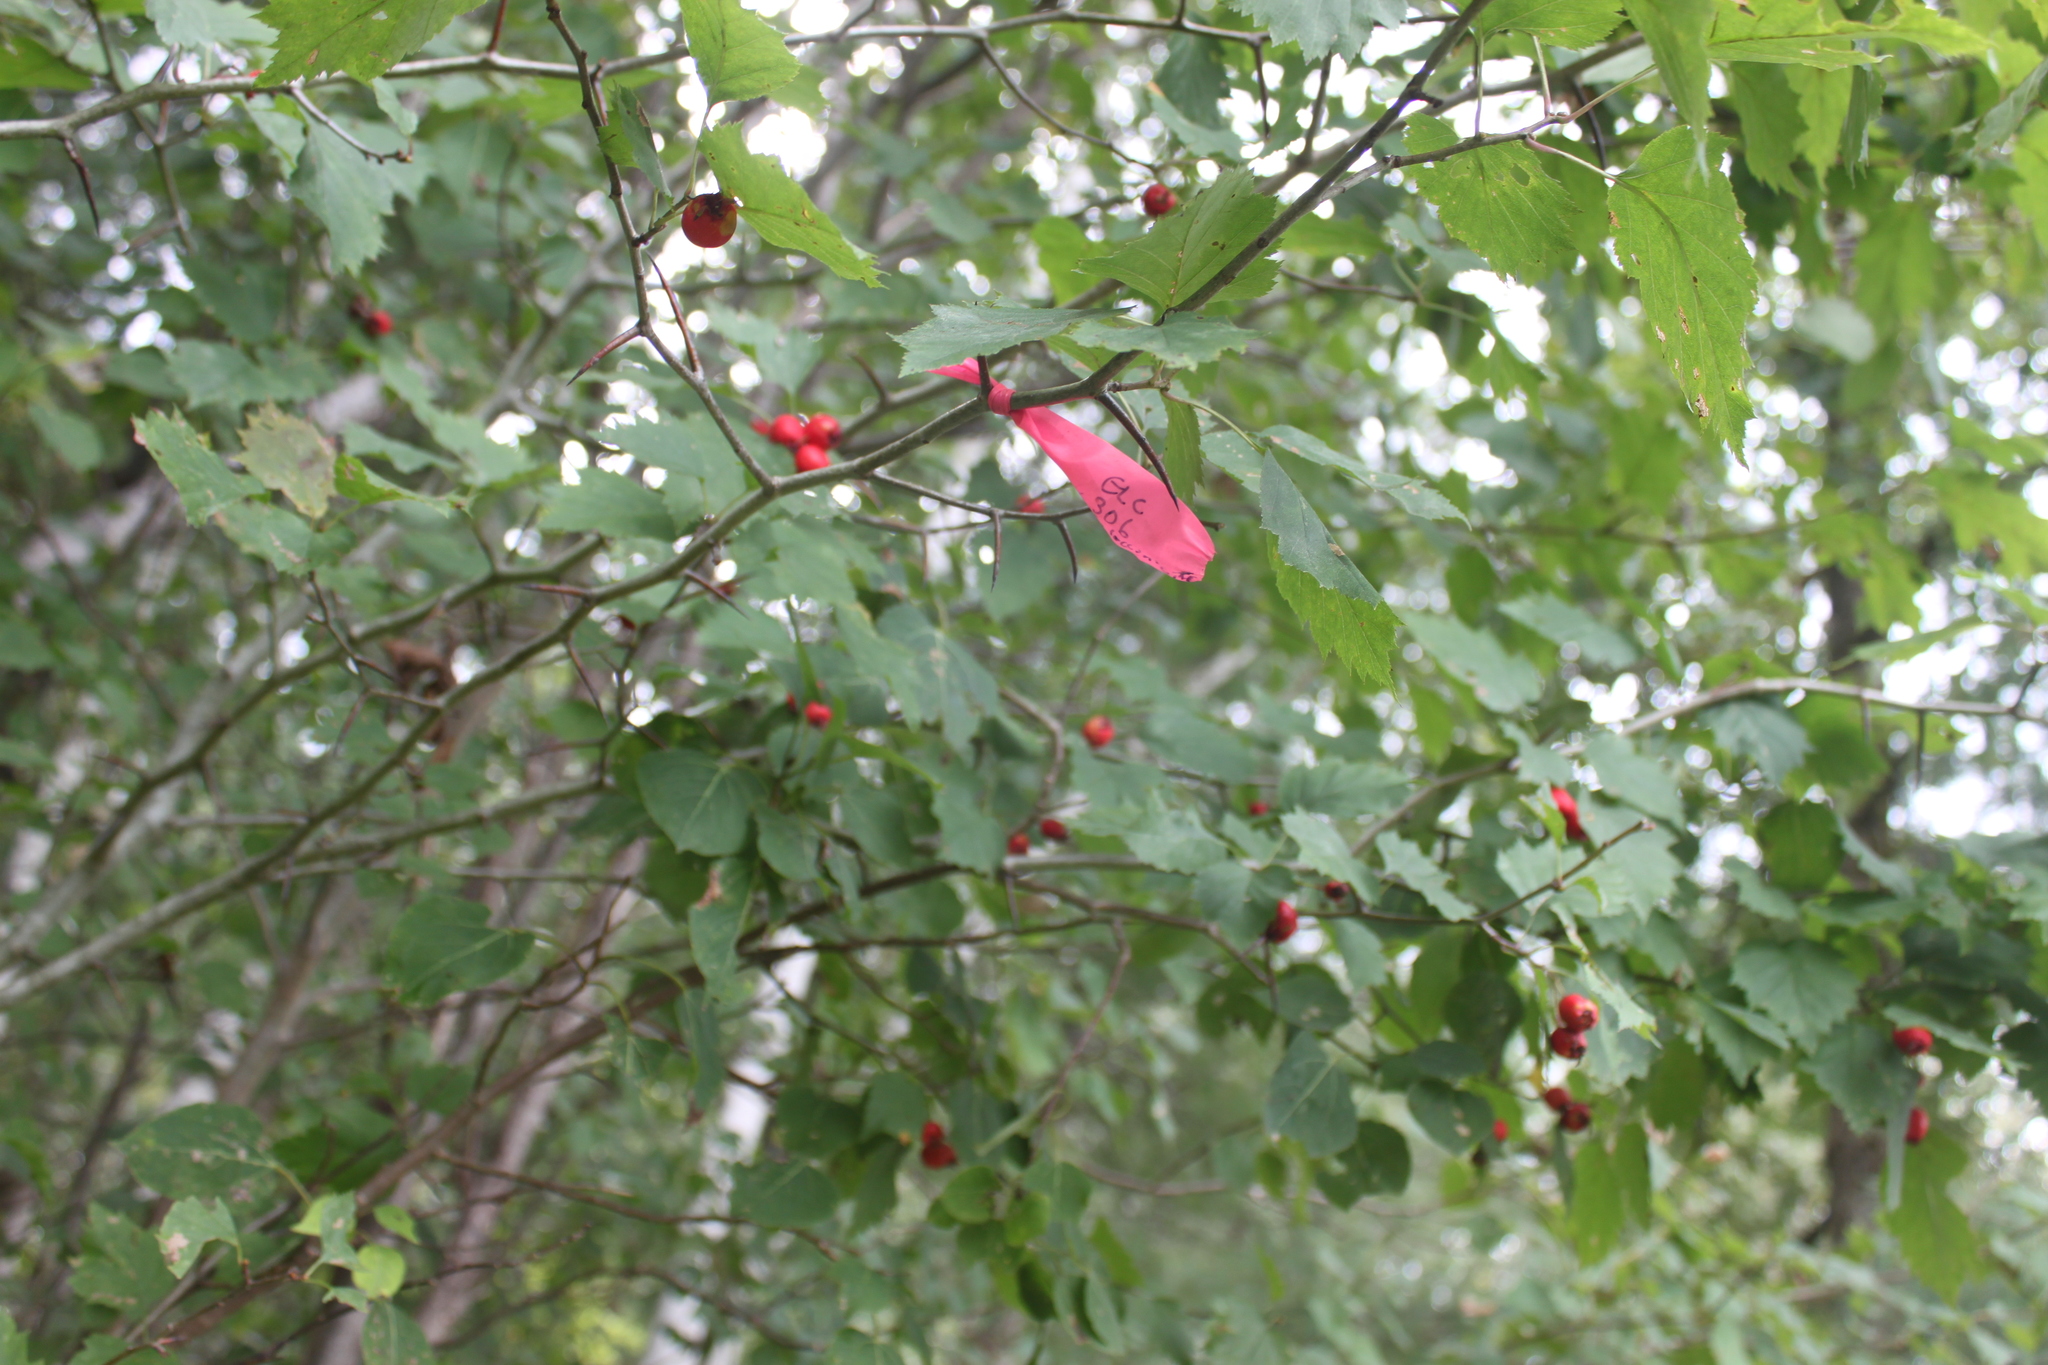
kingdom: Plantae
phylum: Tracheophyta
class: Magnoliopsida
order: Rosales
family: Rosaceae
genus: Crataegus
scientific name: Crataegus schuettei
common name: Schuette's hawthorn
